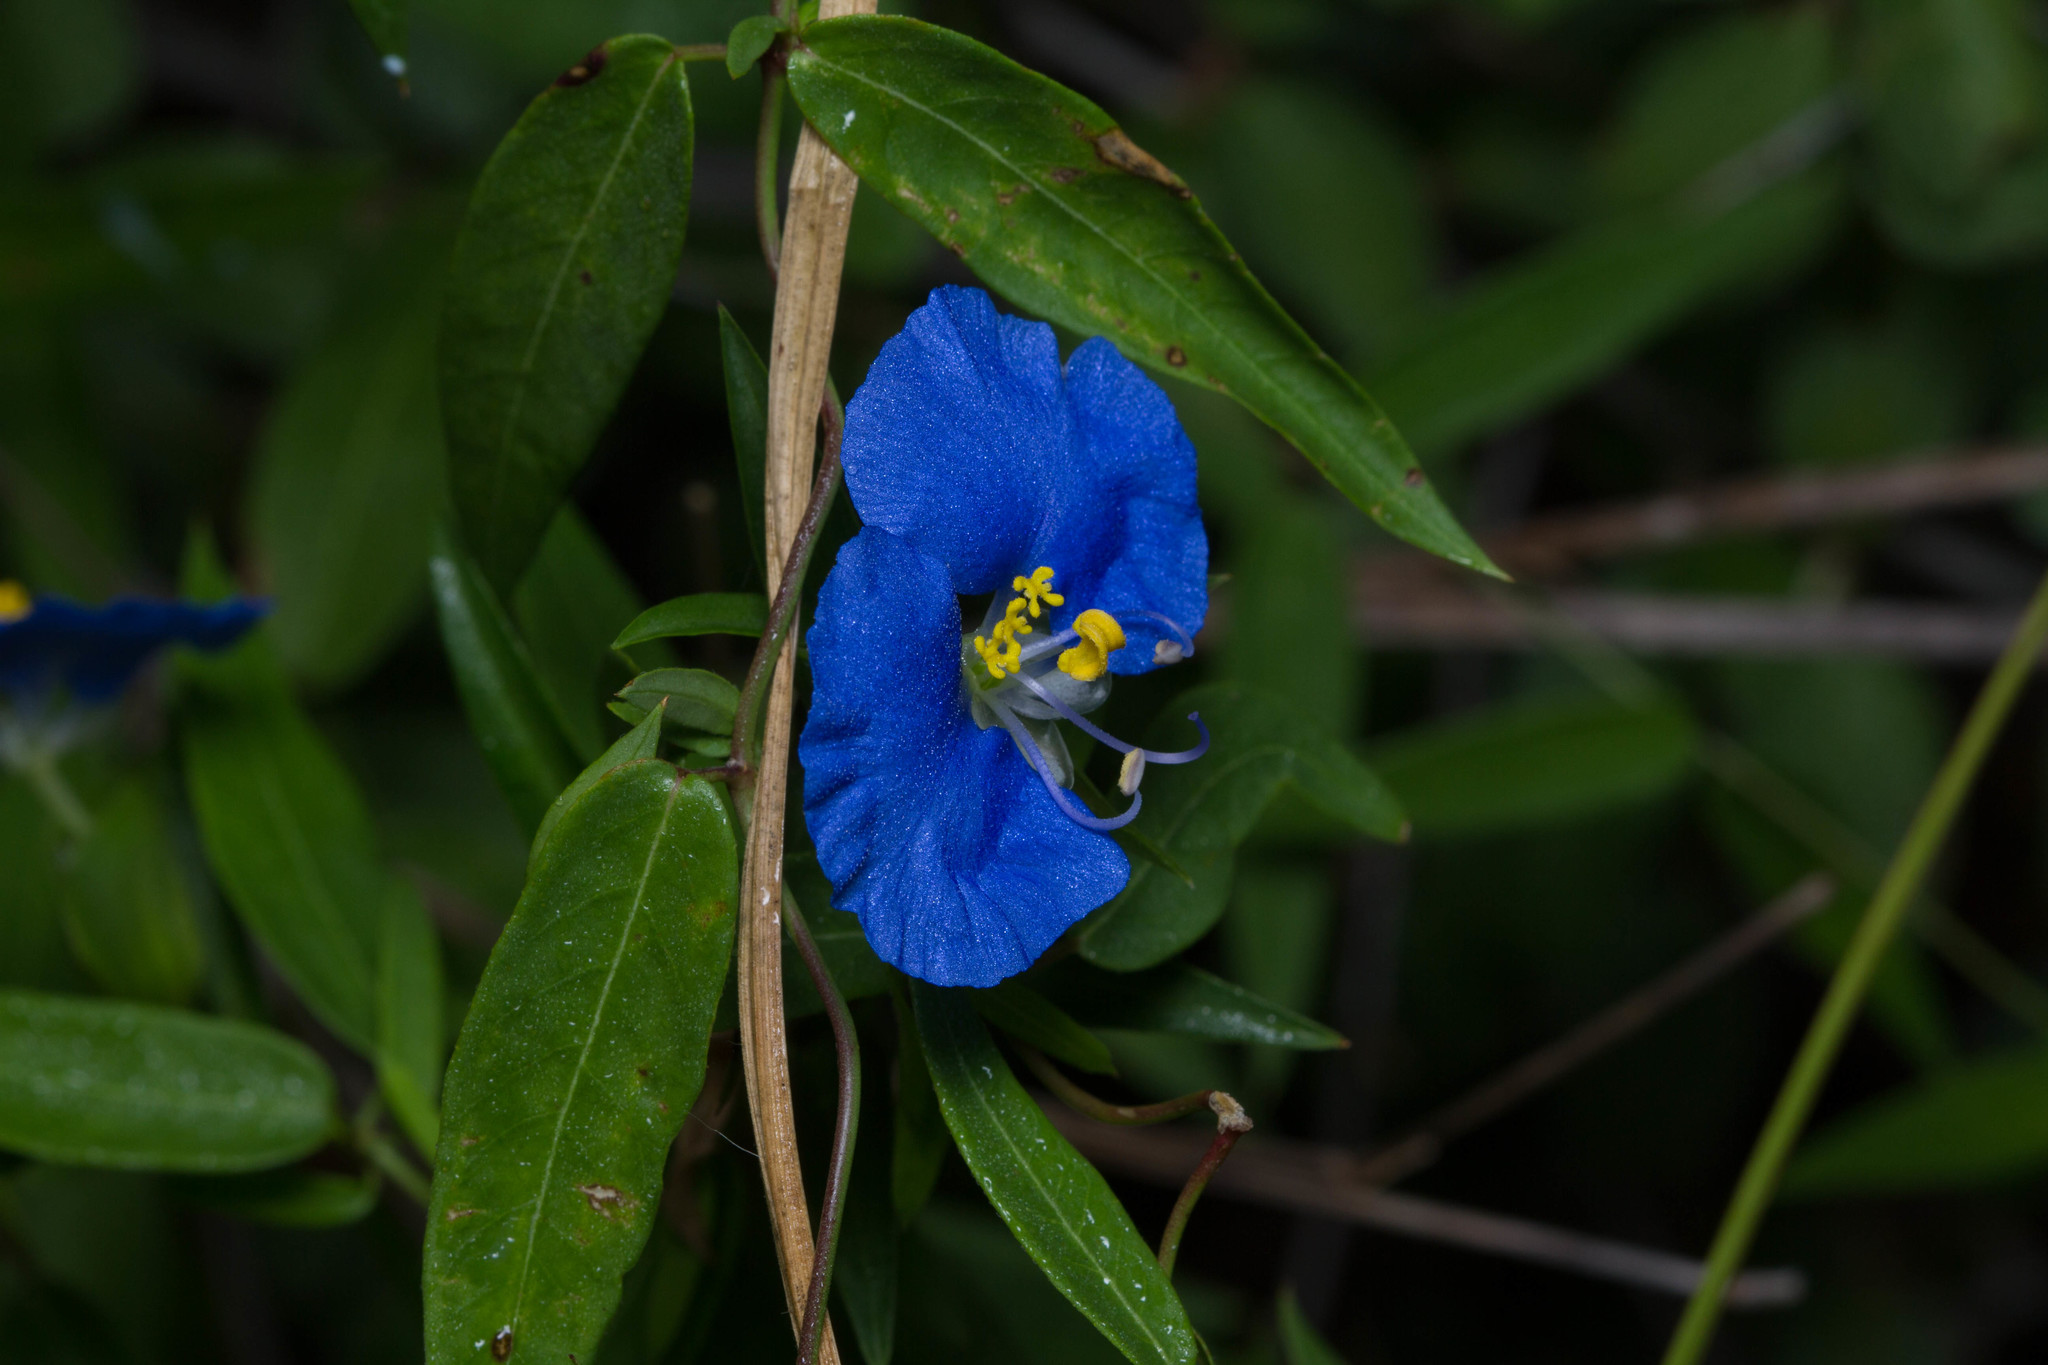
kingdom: Plantae
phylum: Tracheophyta
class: Liliopsida
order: Commelinales
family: Commelinaceae
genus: Commelina
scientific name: Commelina erecta
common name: Blousel blommetjie
